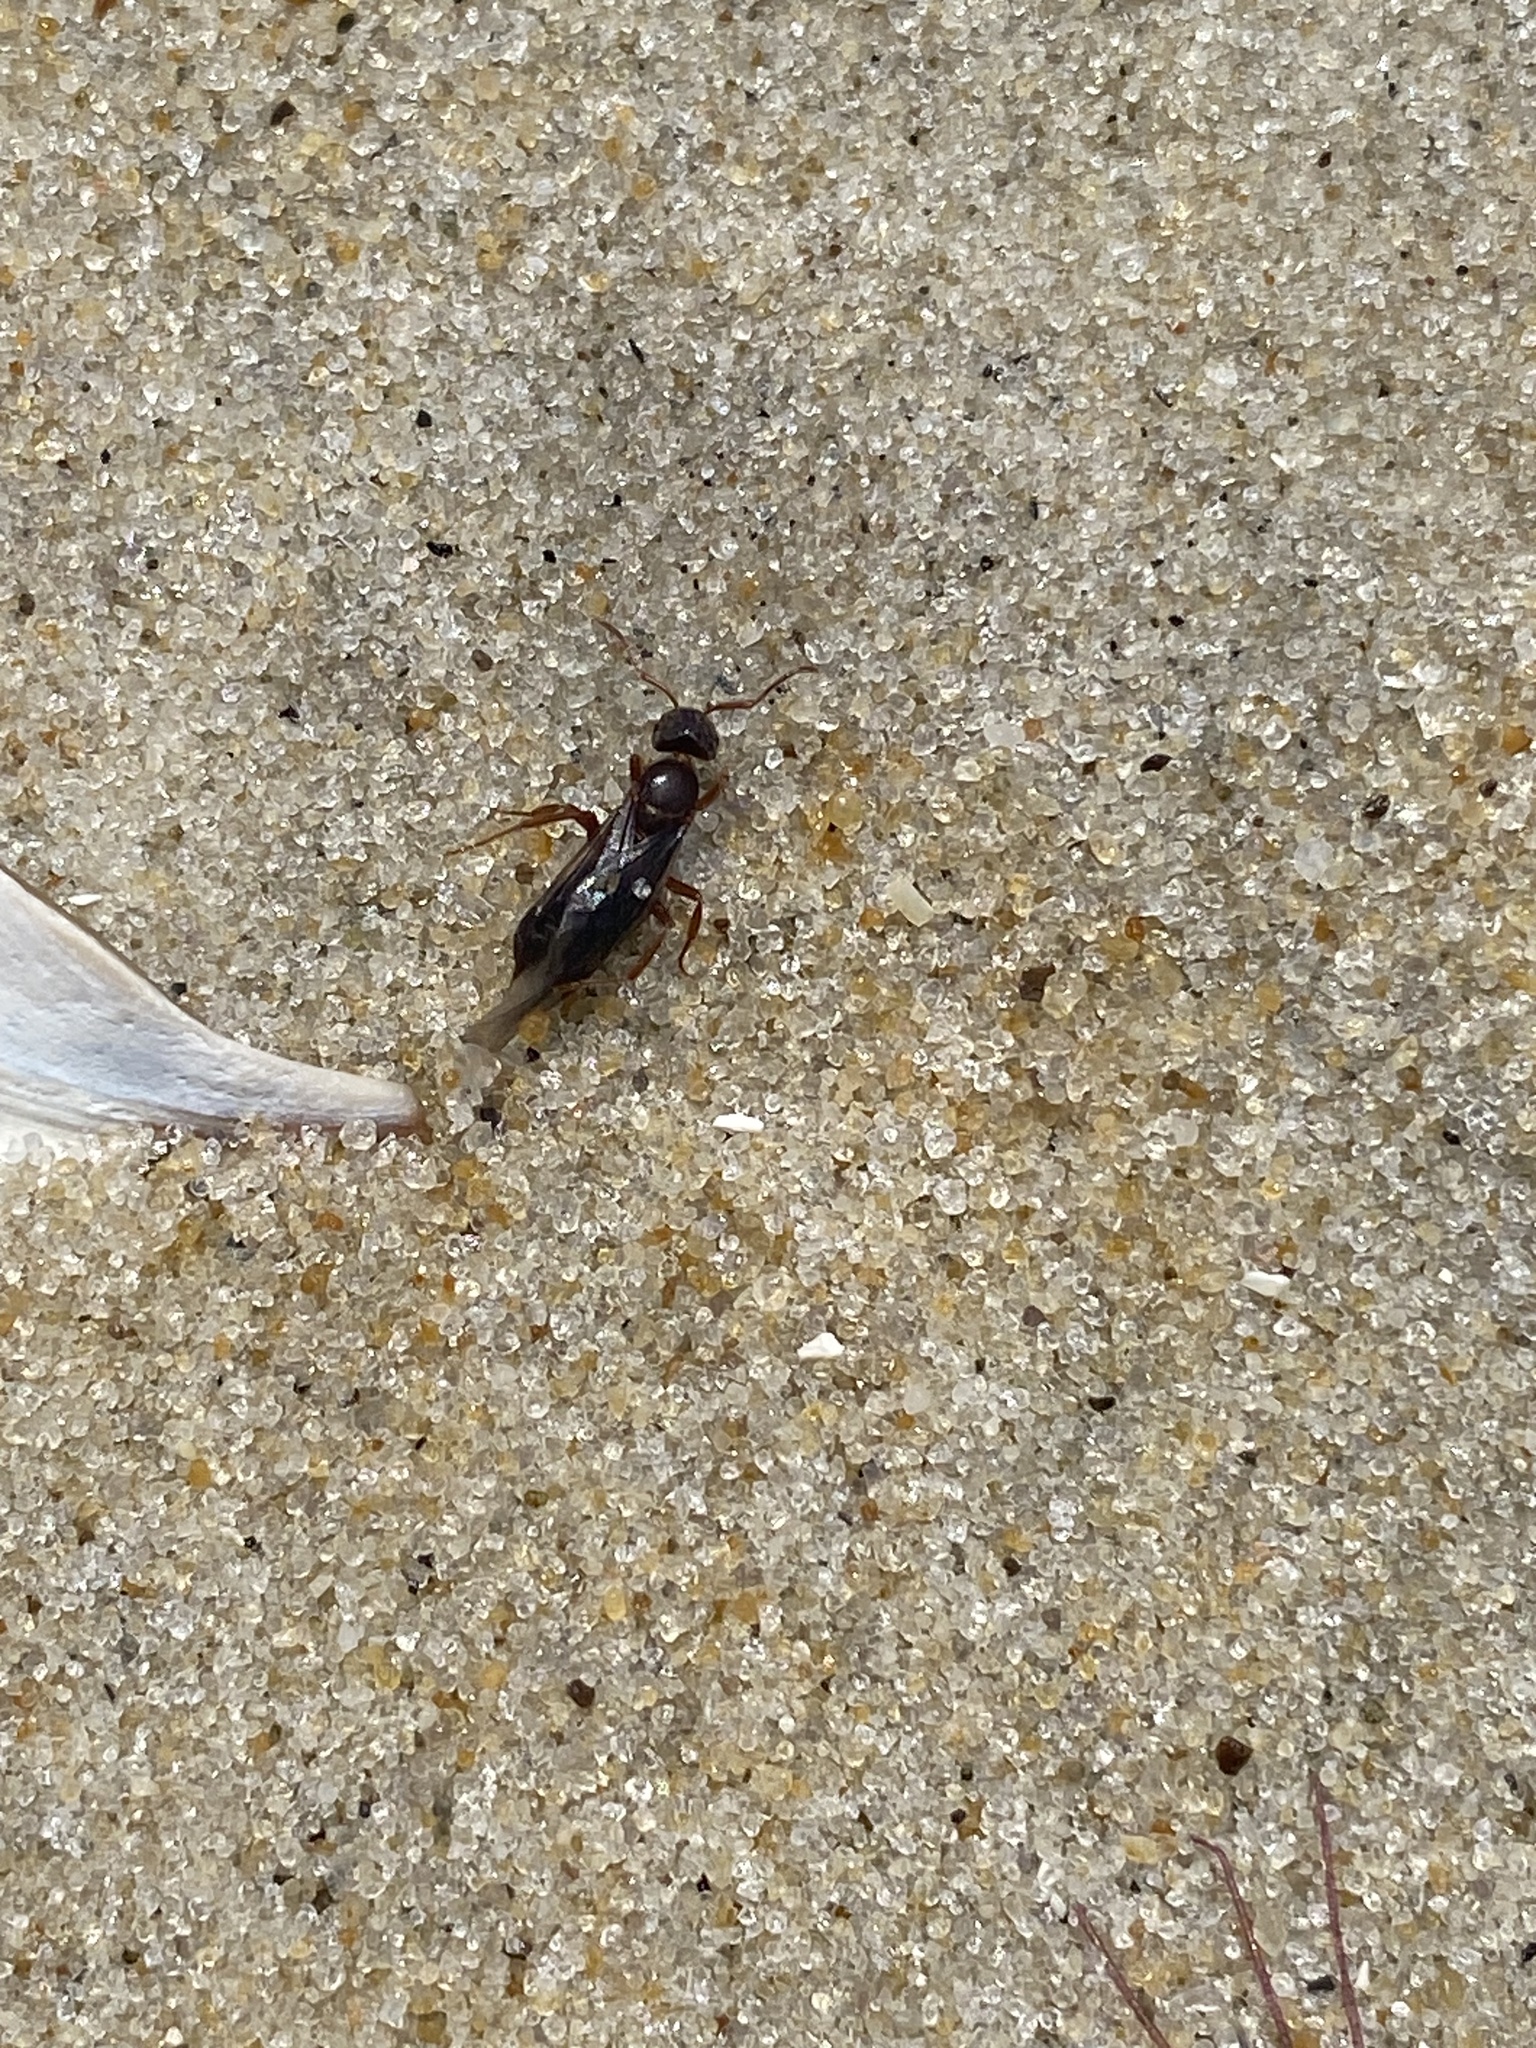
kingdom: Animalia
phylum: Arthropoda
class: Insecta
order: Hymenoptera
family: Formicidae
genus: Lasius
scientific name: Lasius aphidicola
